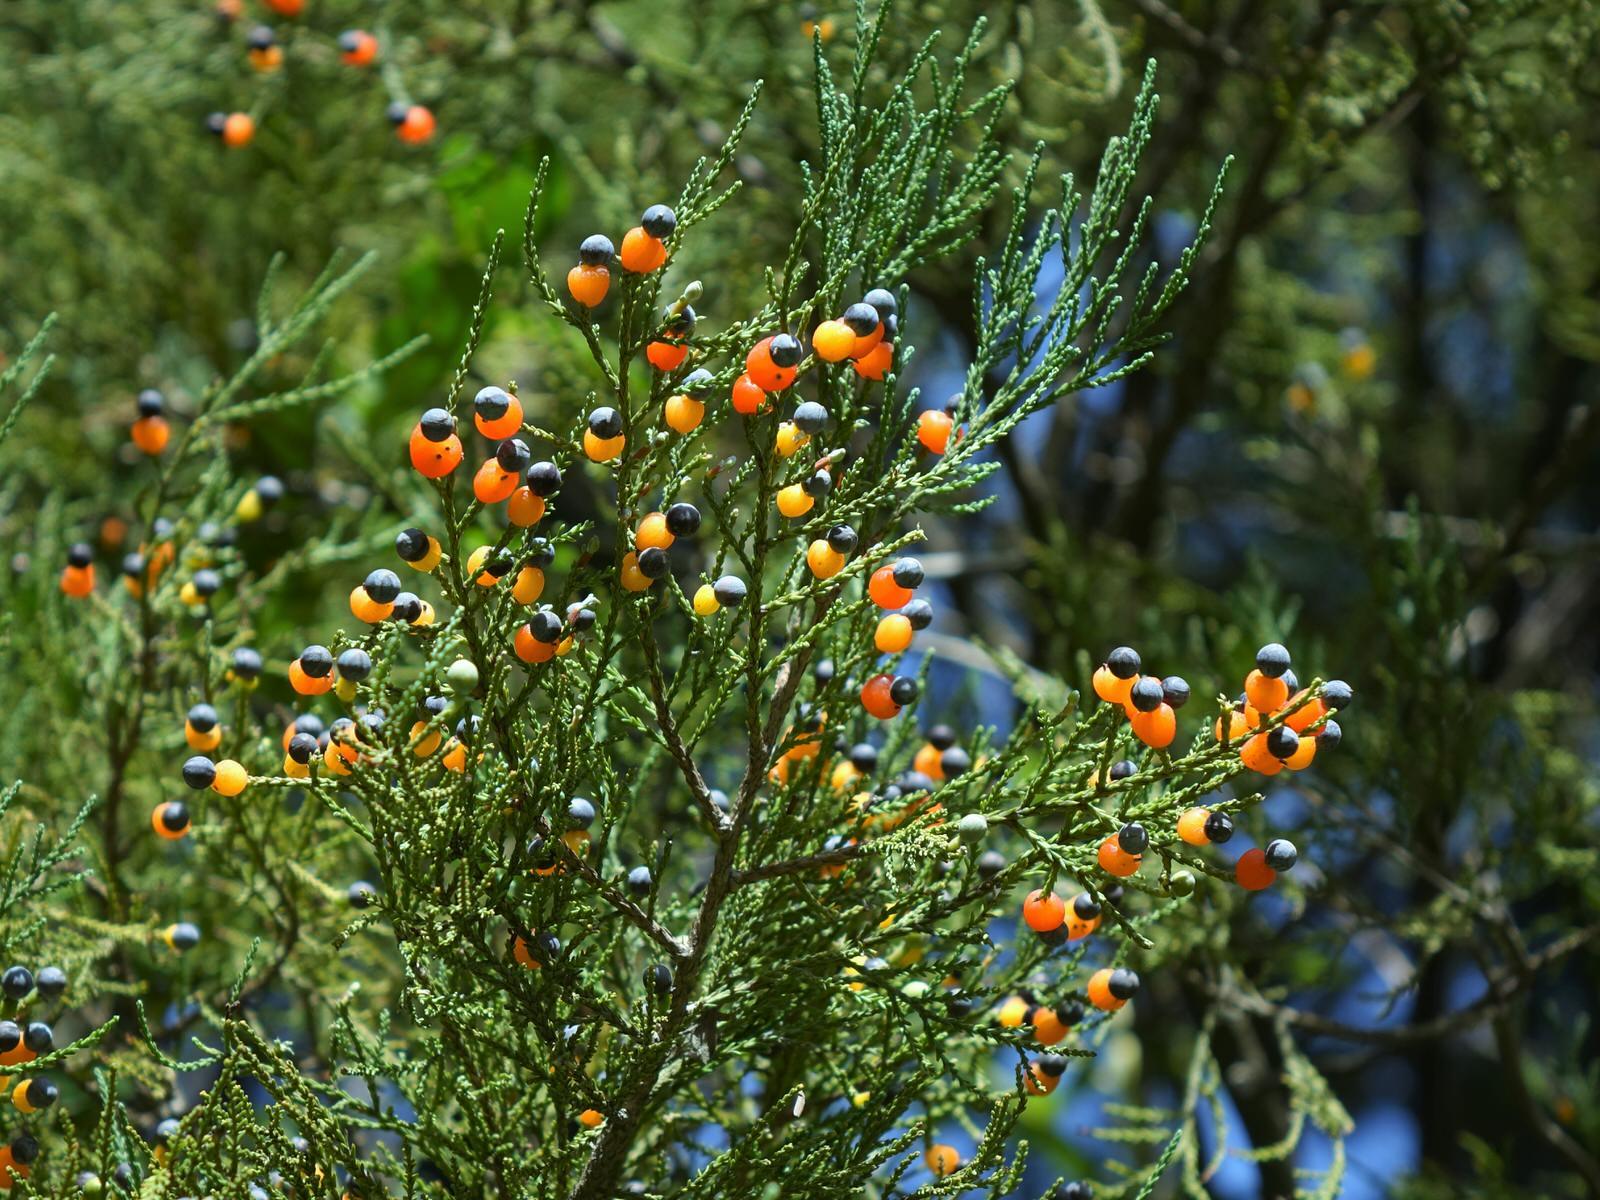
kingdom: Plantae
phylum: Tracheophyta
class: Pinopsida
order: Pinales
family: Podocarpaceae
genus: Dacrycarpus
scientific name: Dacrycarpus dacrydioides
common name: White pine
